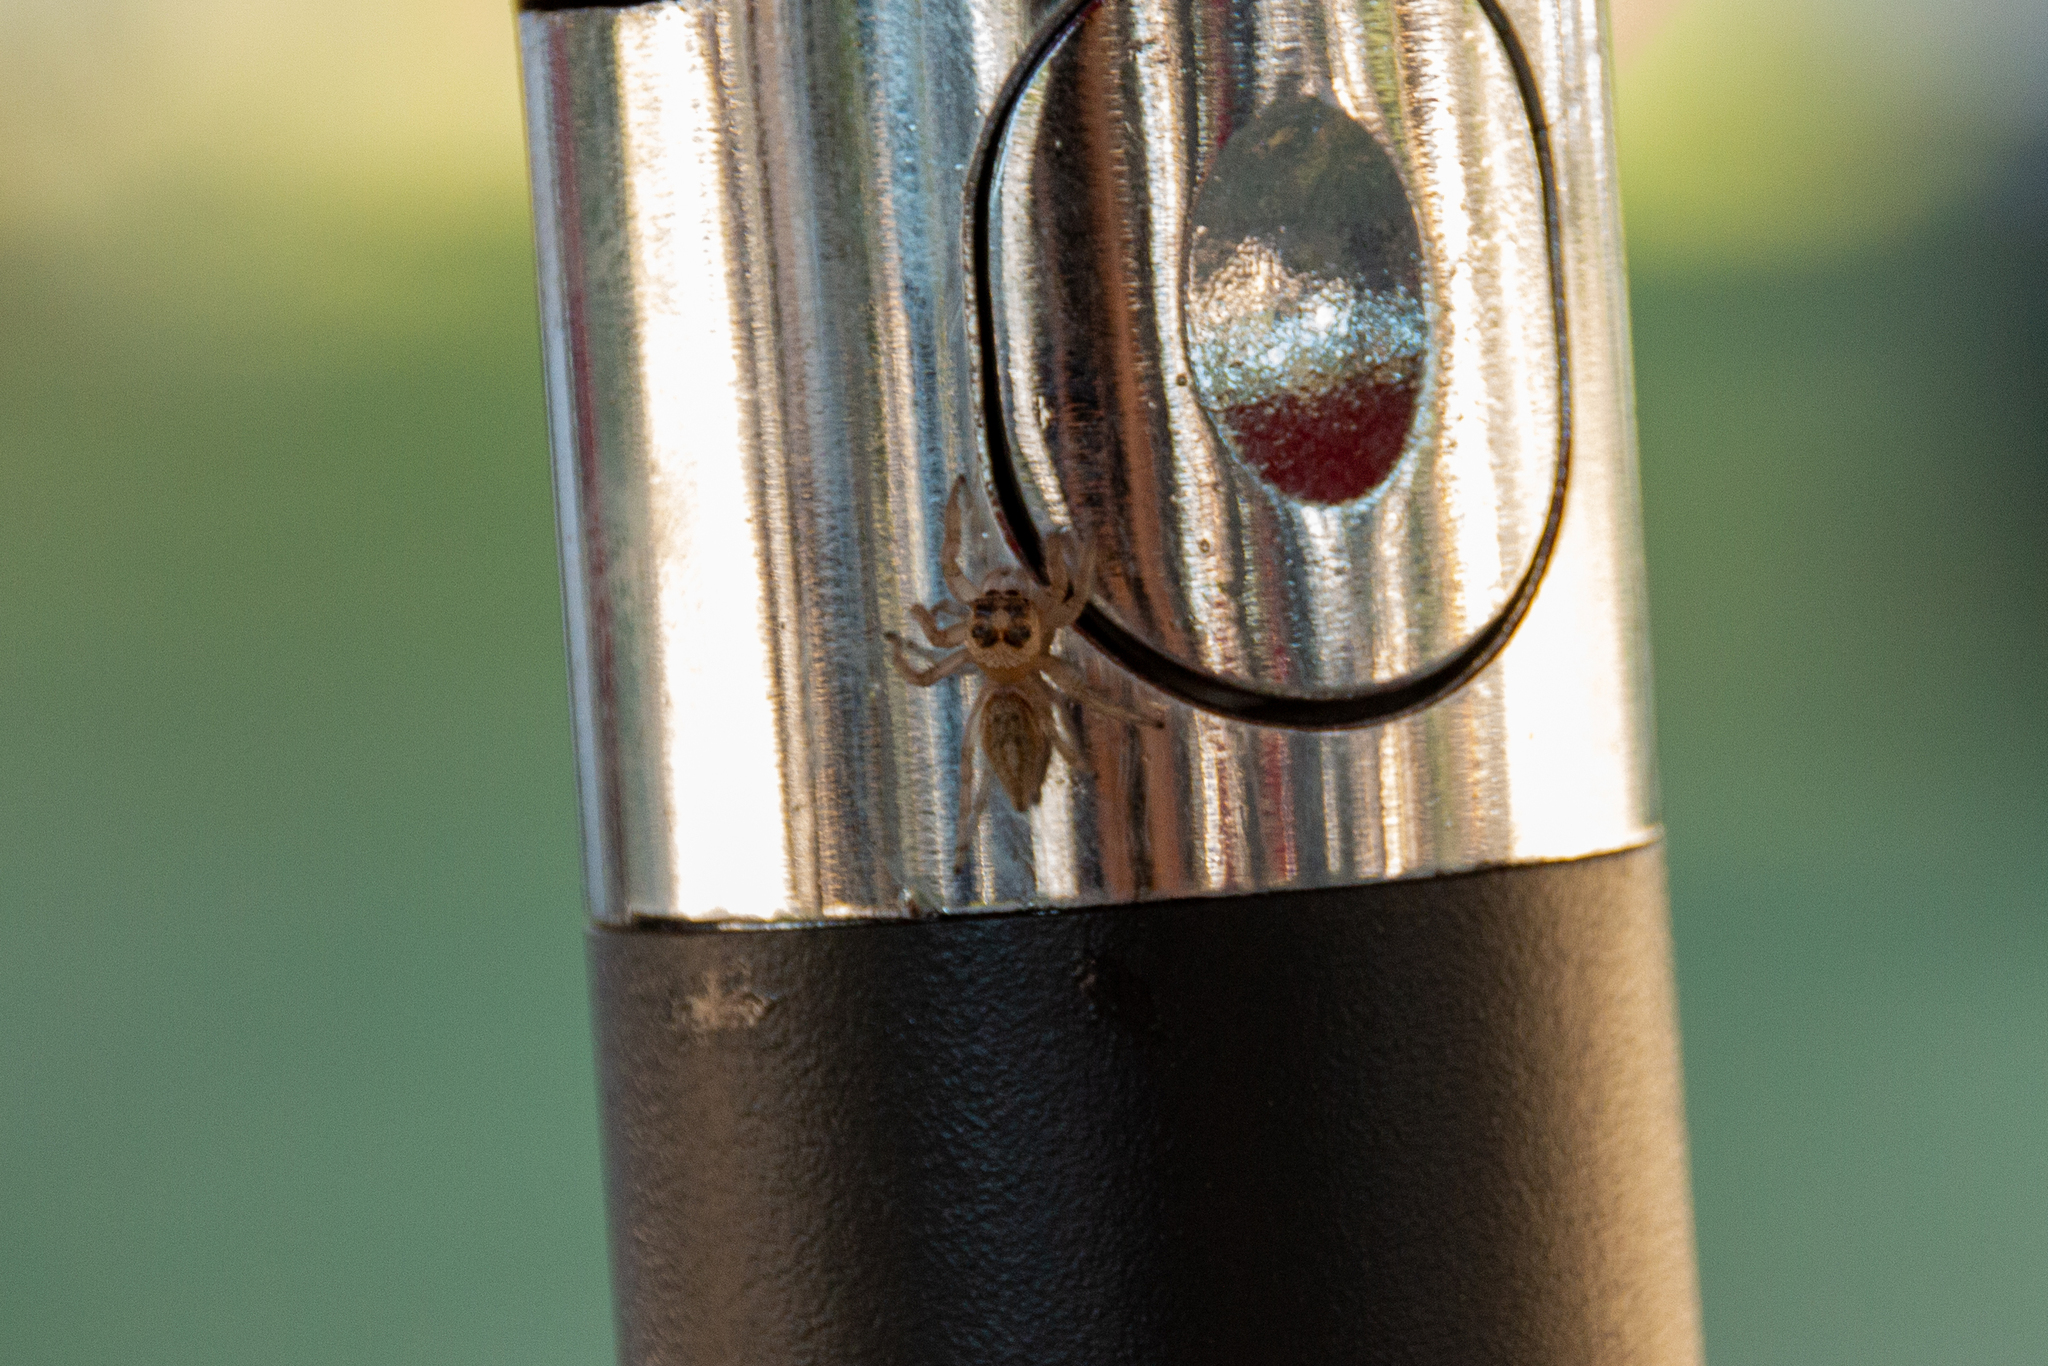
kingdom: Animalia
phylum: Arthropoda
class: Arachnida
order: Araneae
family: Salticidae
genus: Colonus
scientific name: Colonus hesperus
